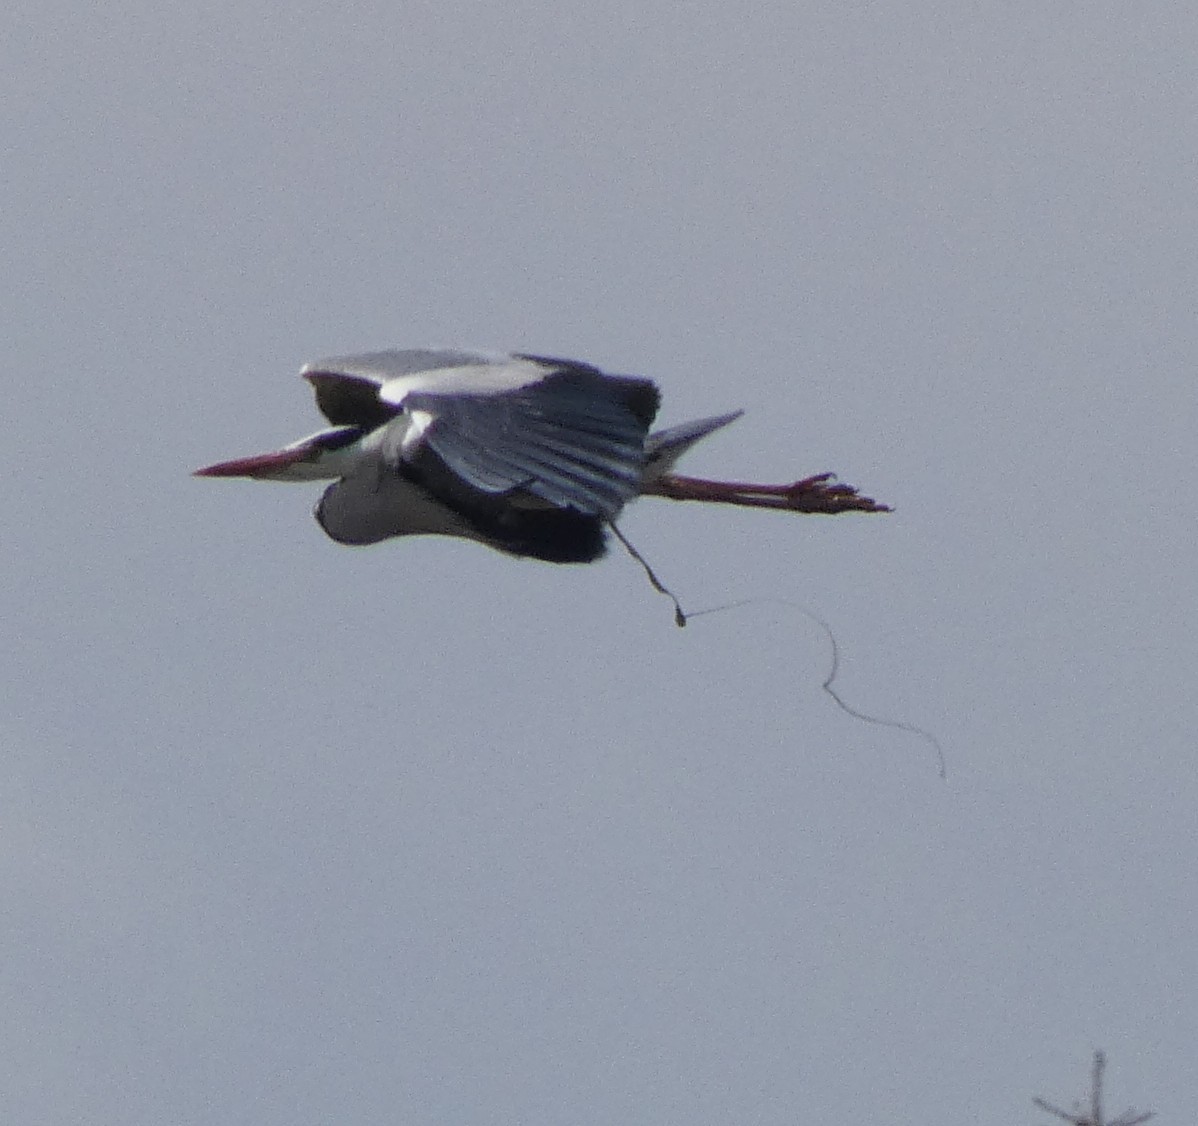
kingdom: Animalia
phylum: Chordata
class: Aves
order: Pelecaniformes
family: Ardeidae
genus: Ardea
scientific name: Ardea cinerea
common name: Grey heron
